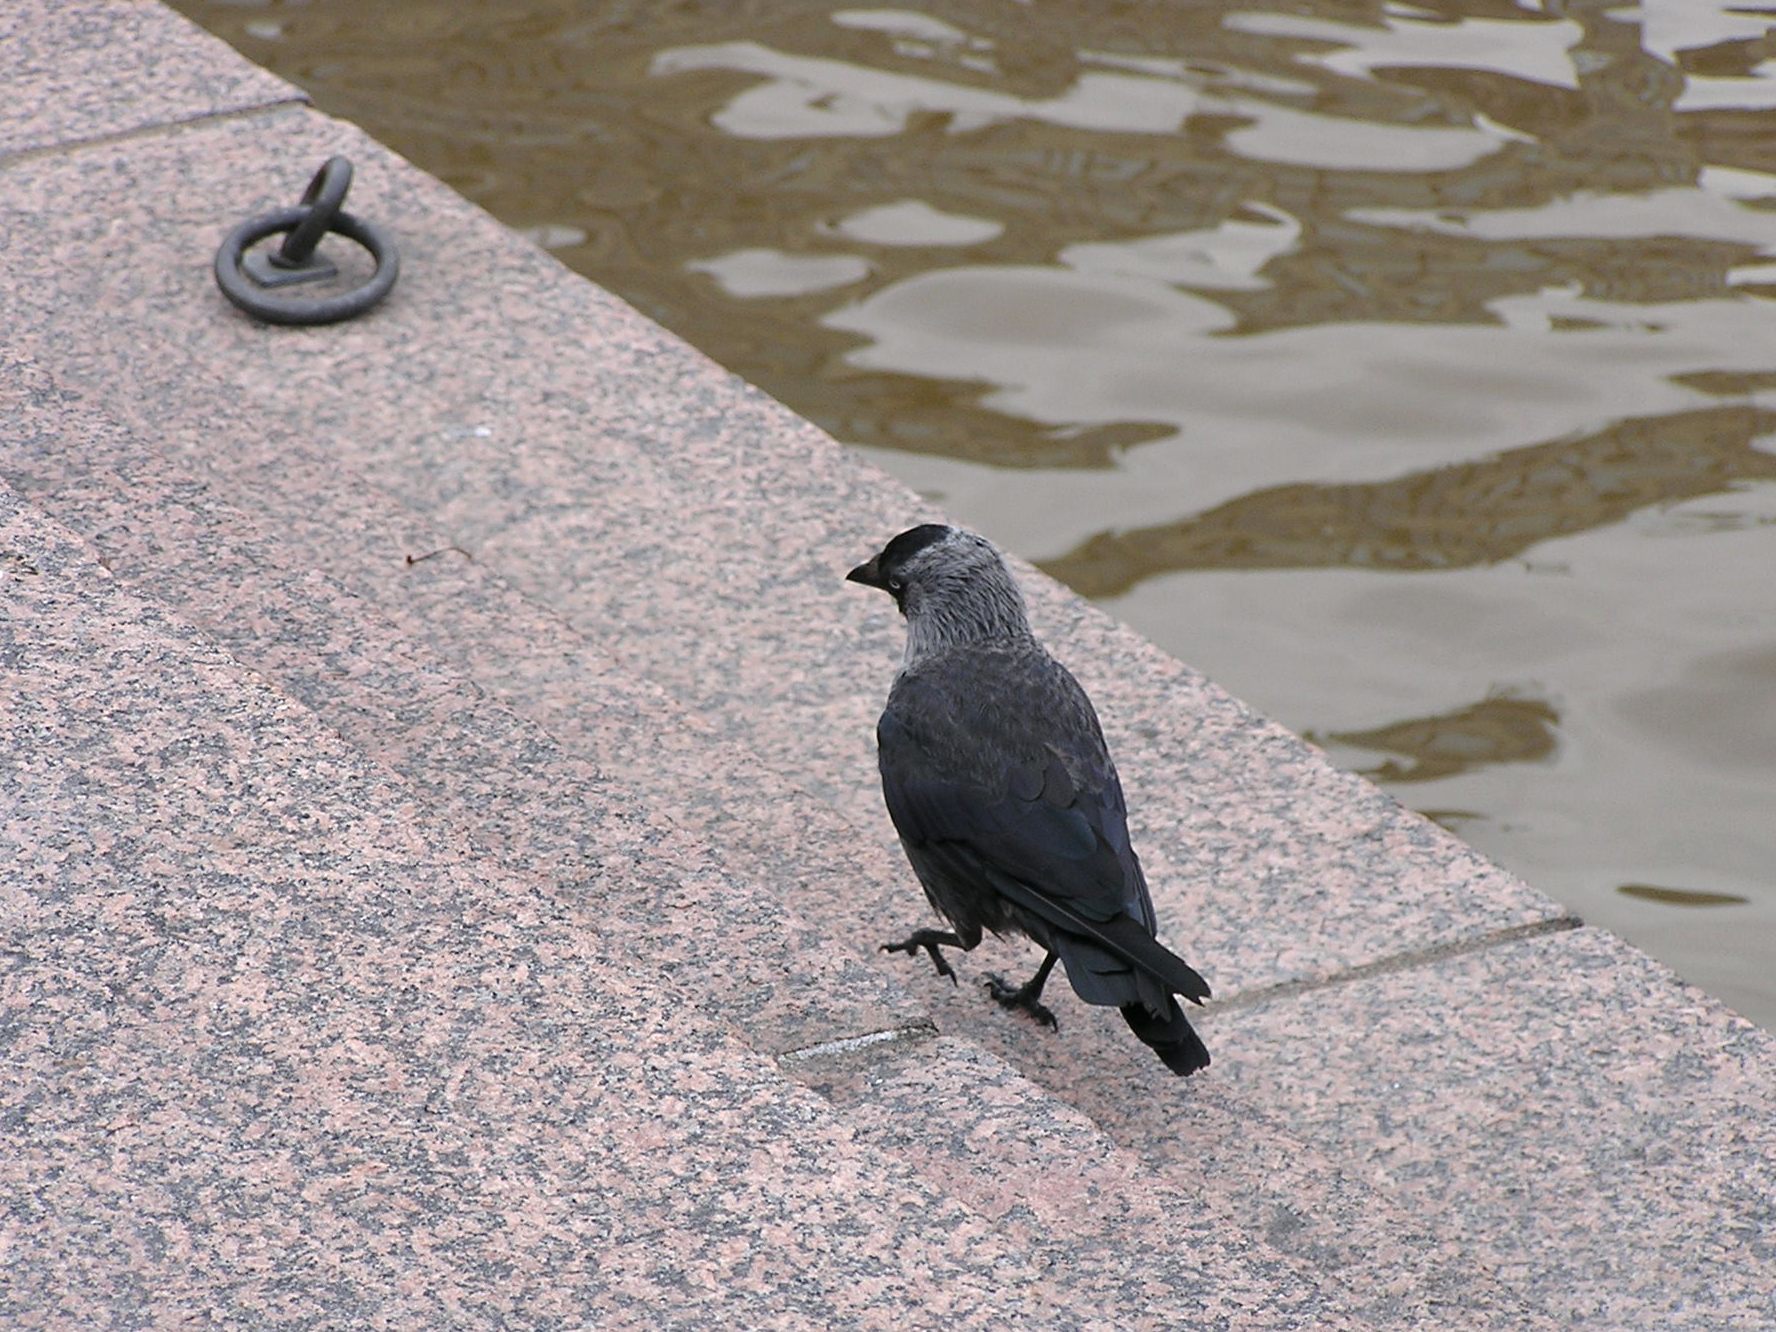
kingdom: Animalia
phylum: Chordata
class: Aves
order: Passeriformes
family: Corvidae
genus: Coloeus
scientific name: Coloeus monedula
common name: Western jackdaw
